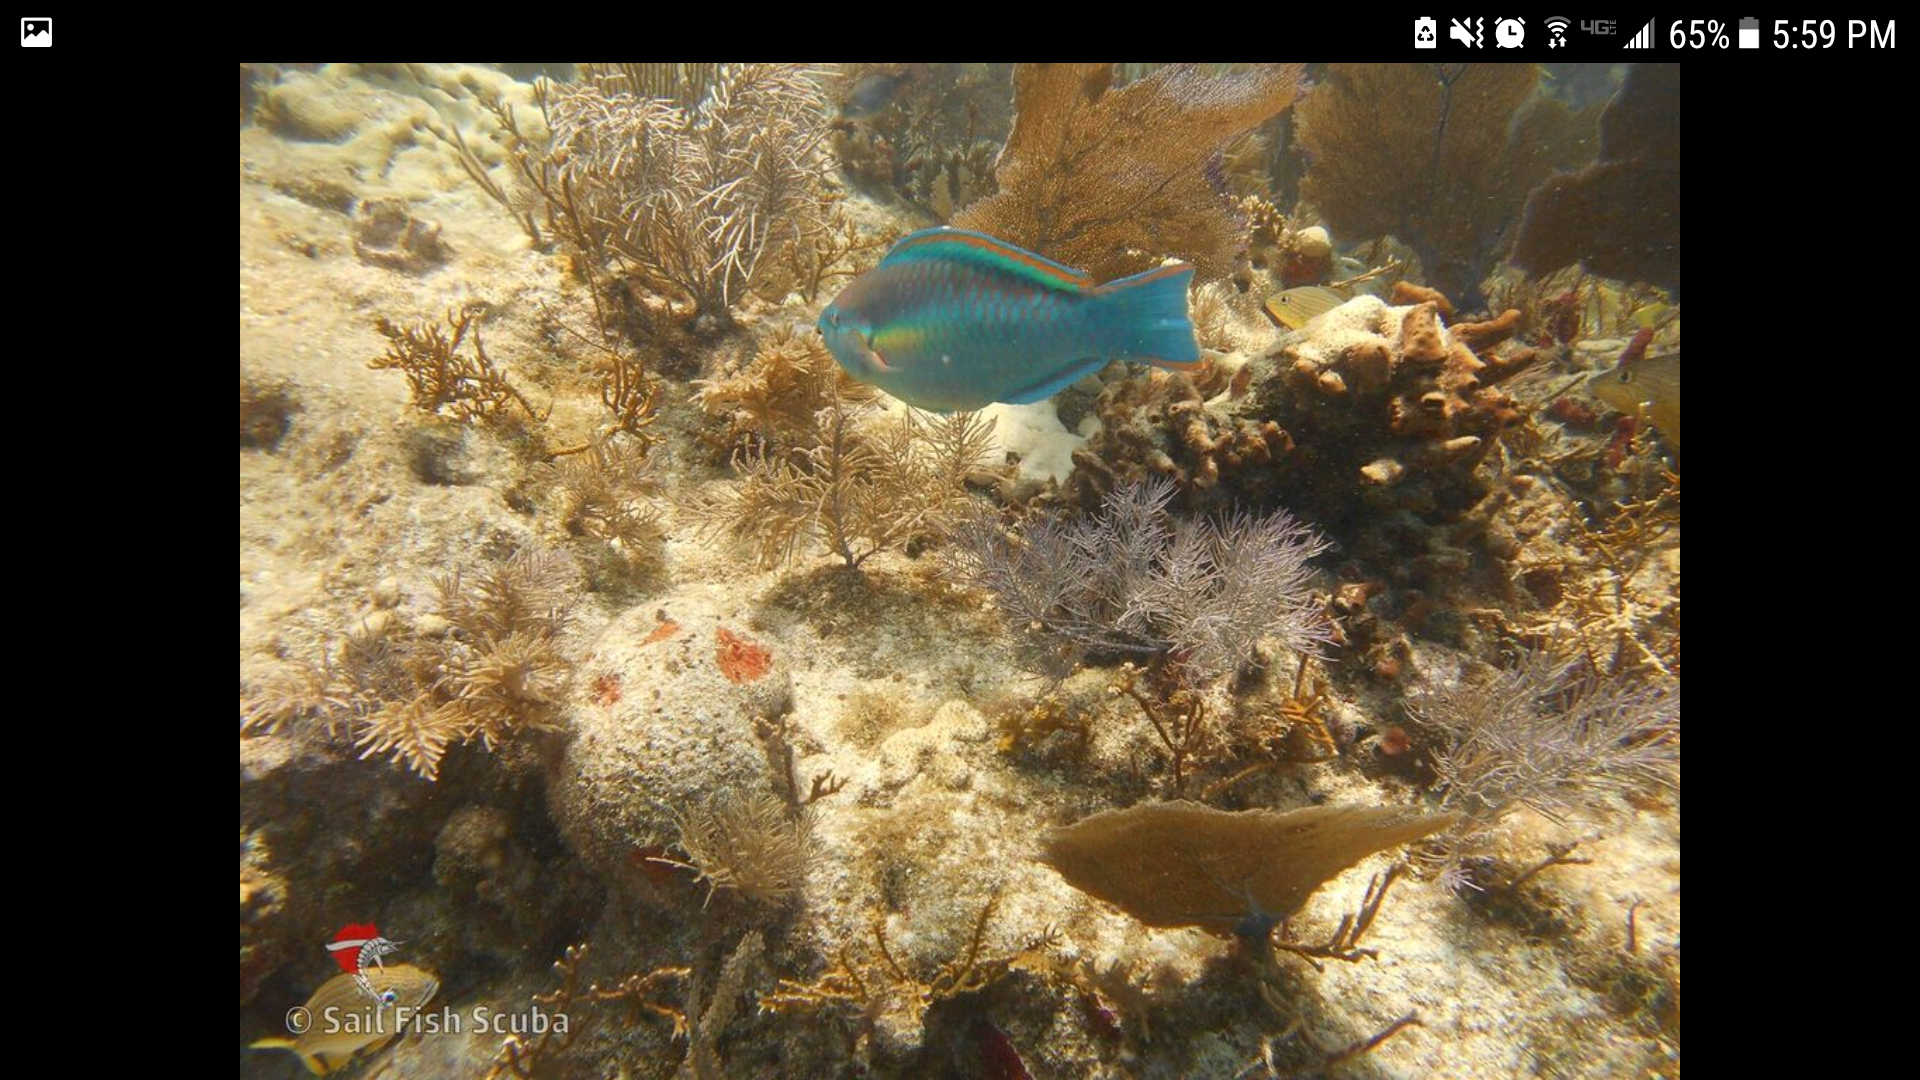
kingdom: Animalia
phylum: Chordata
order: Perciformes
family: Scaridae
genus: Scarus
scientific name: Scarus taeniopterus
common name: Princess parrotfish
